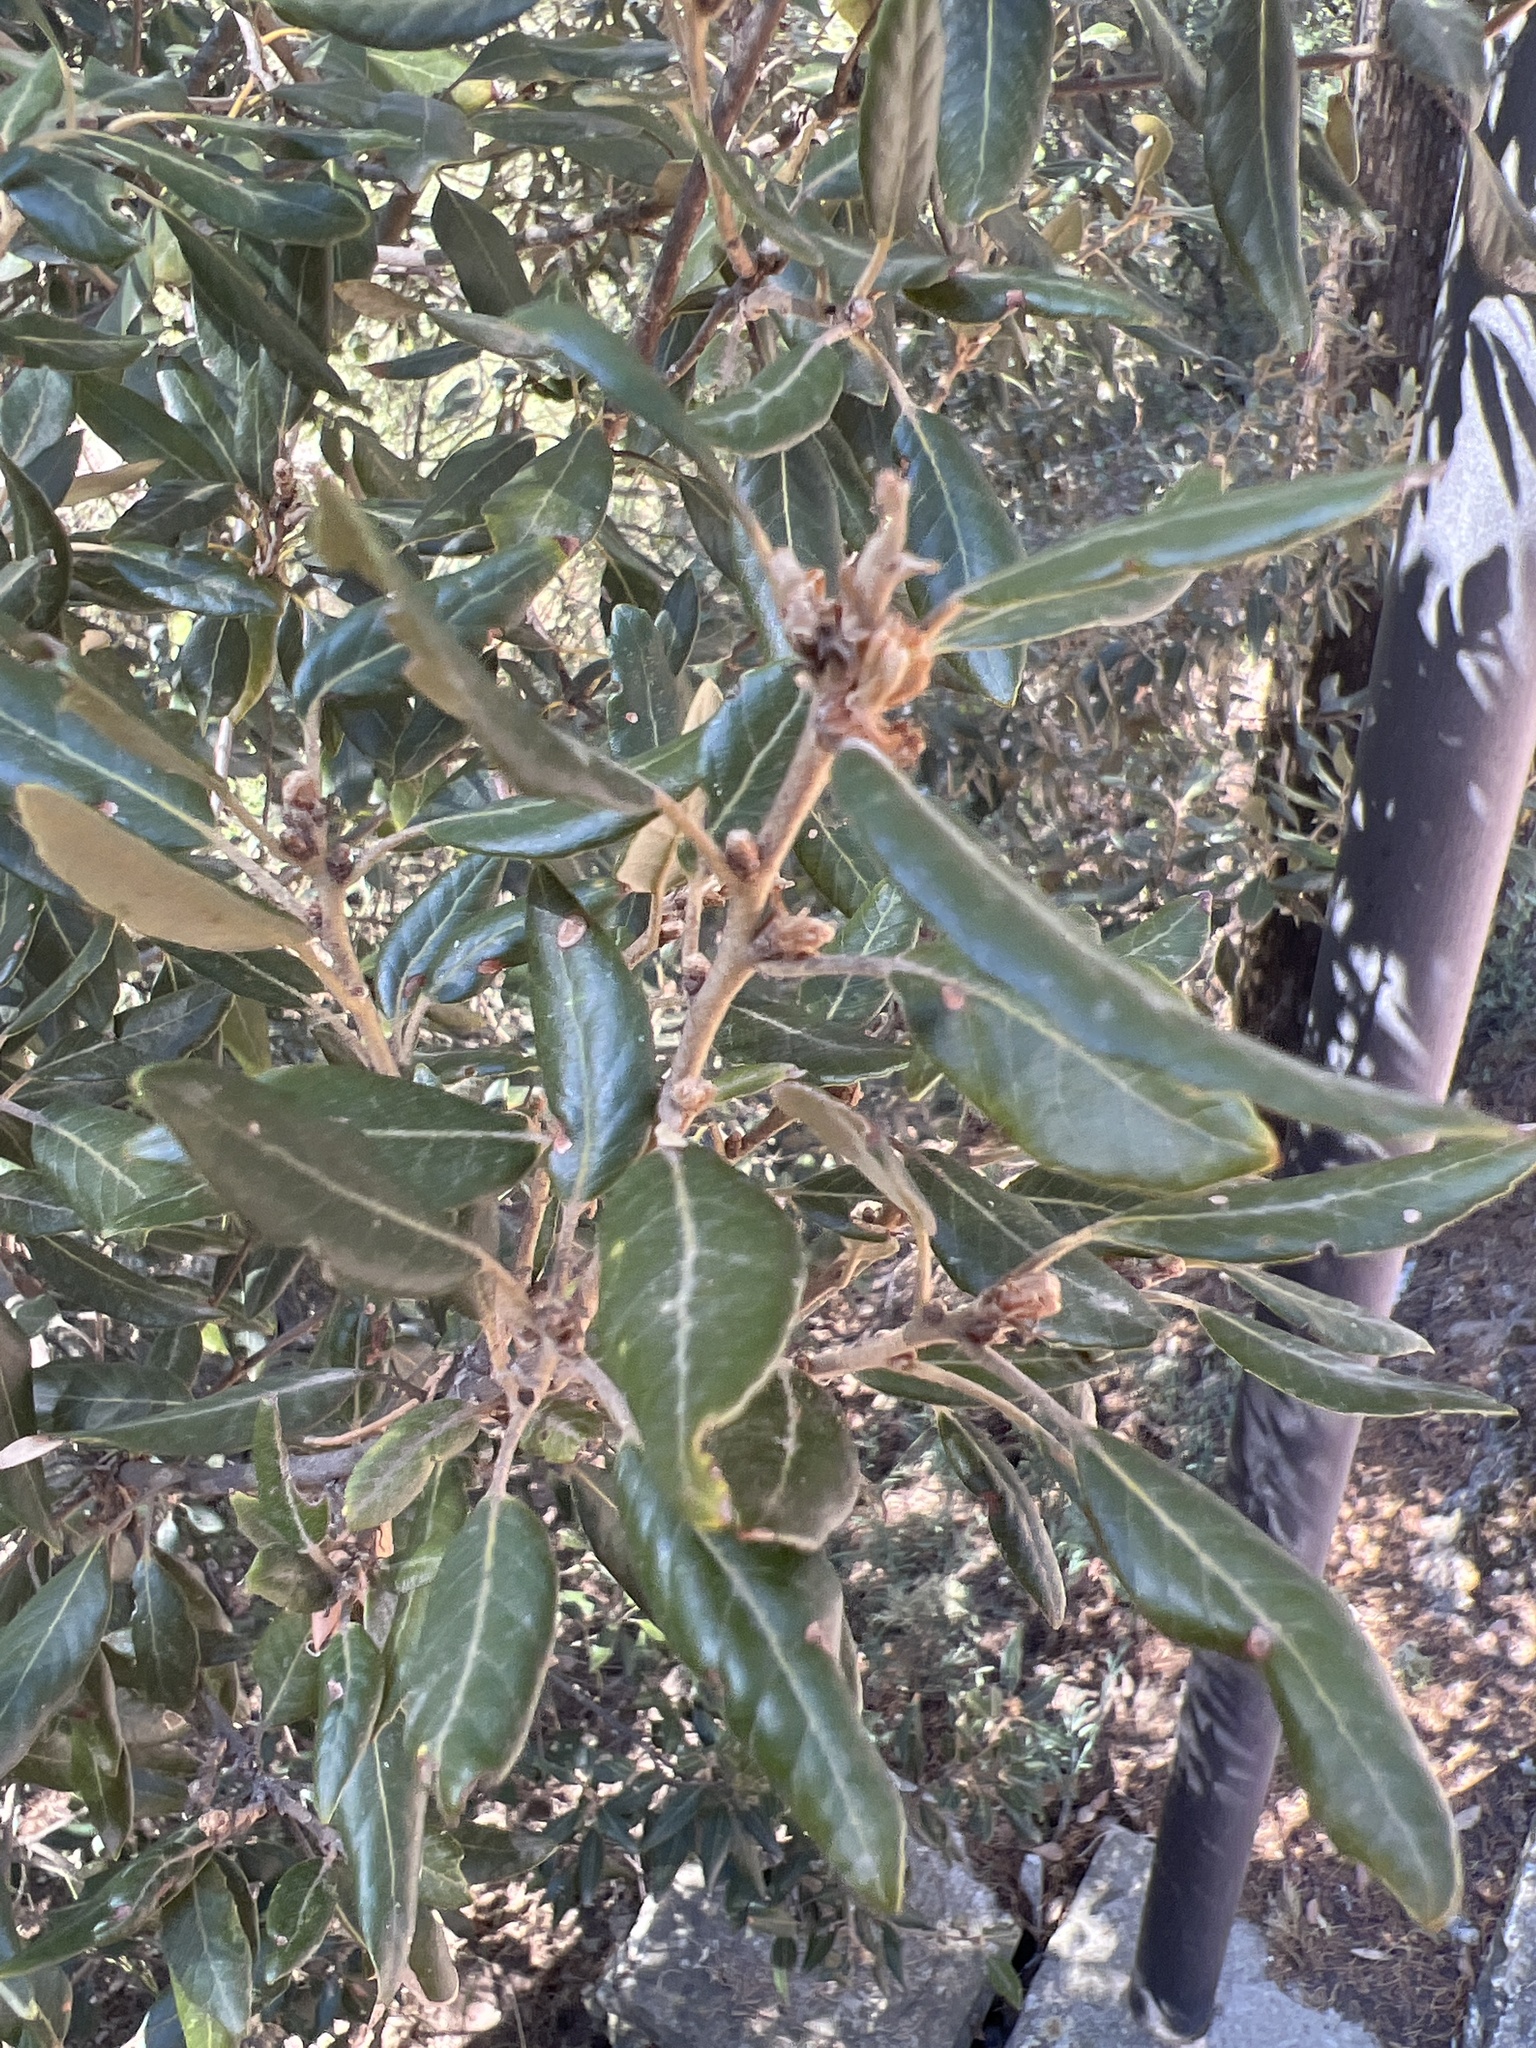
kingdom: Plantae
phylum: Tracheophyta
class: Magnoliopsida
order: Fagales
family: Fagaceae
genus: Quercus
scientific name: Quercus ilex
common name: Evergreen oak
